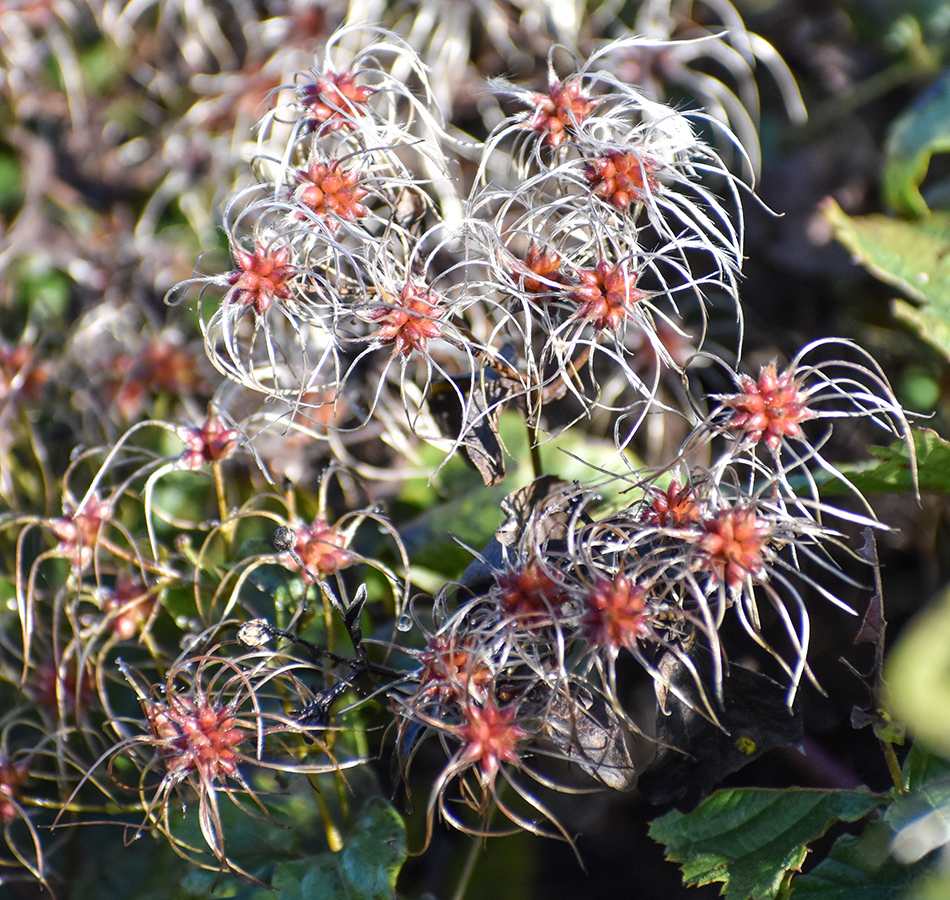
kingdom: Plantae
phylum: Tracheophyta
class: Magnoliopsida
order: Ranunculales
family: Ranunculaceae
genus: Clematis
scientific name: Clematis vitalba
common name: Evergreen clematis
